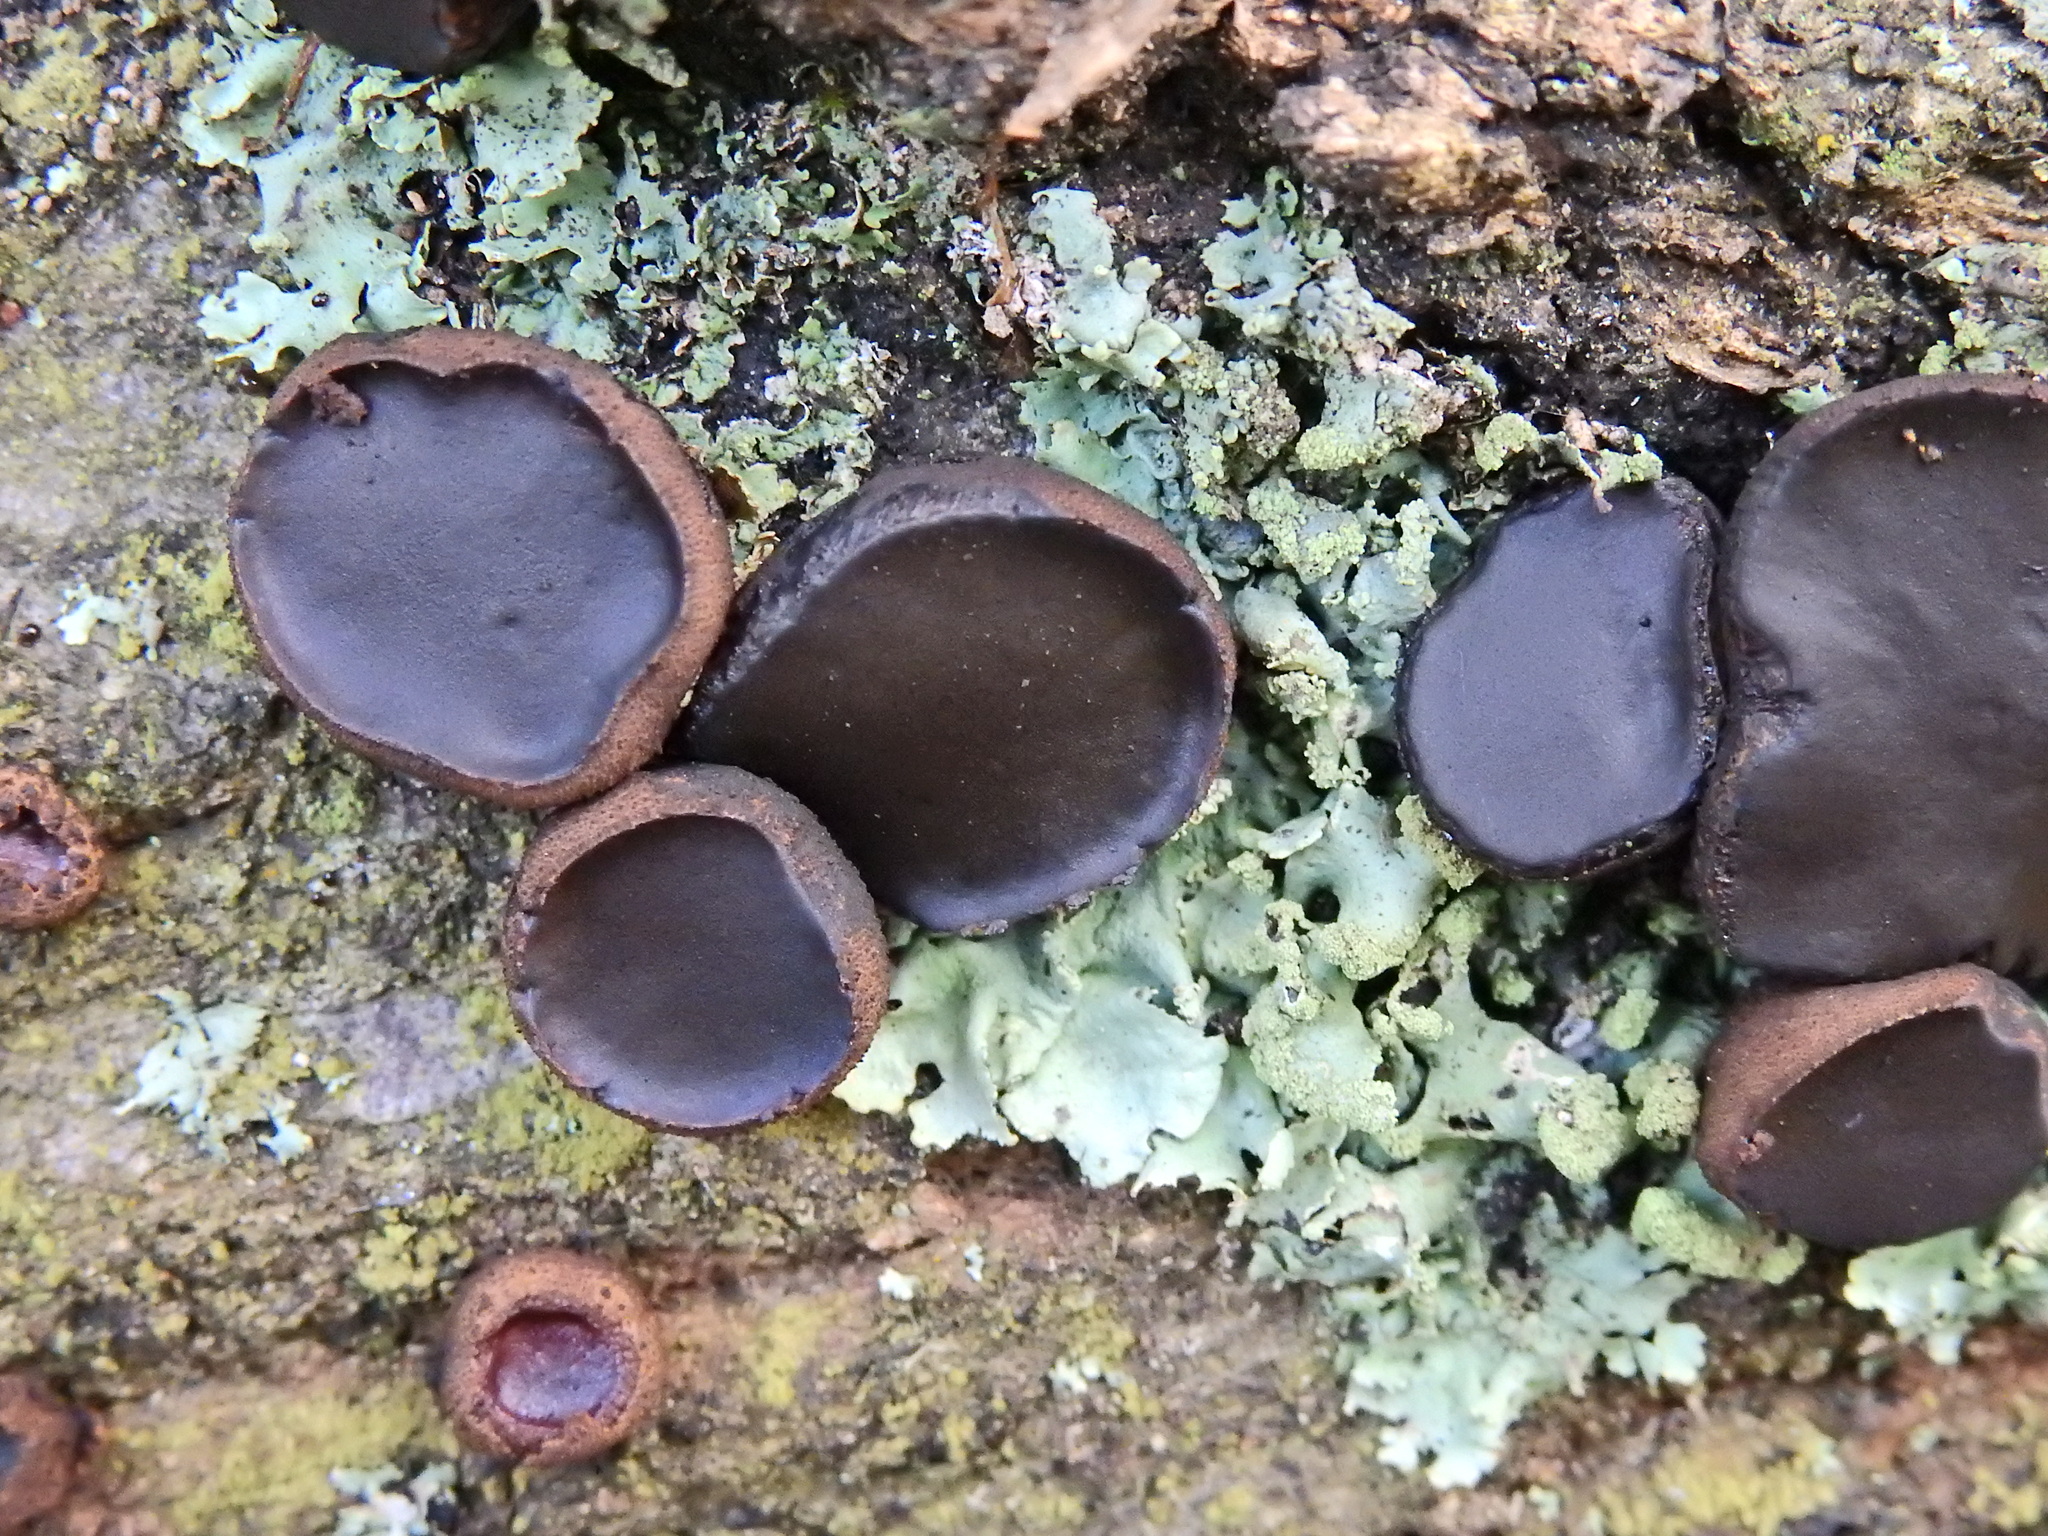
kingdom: Fungi
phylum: Ascomycota
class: Leotiomycetes
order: Phacidiales
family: Phacidiaceae
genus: Bulgaria
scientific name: Bulgaria inquinans
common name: Black bulgar
